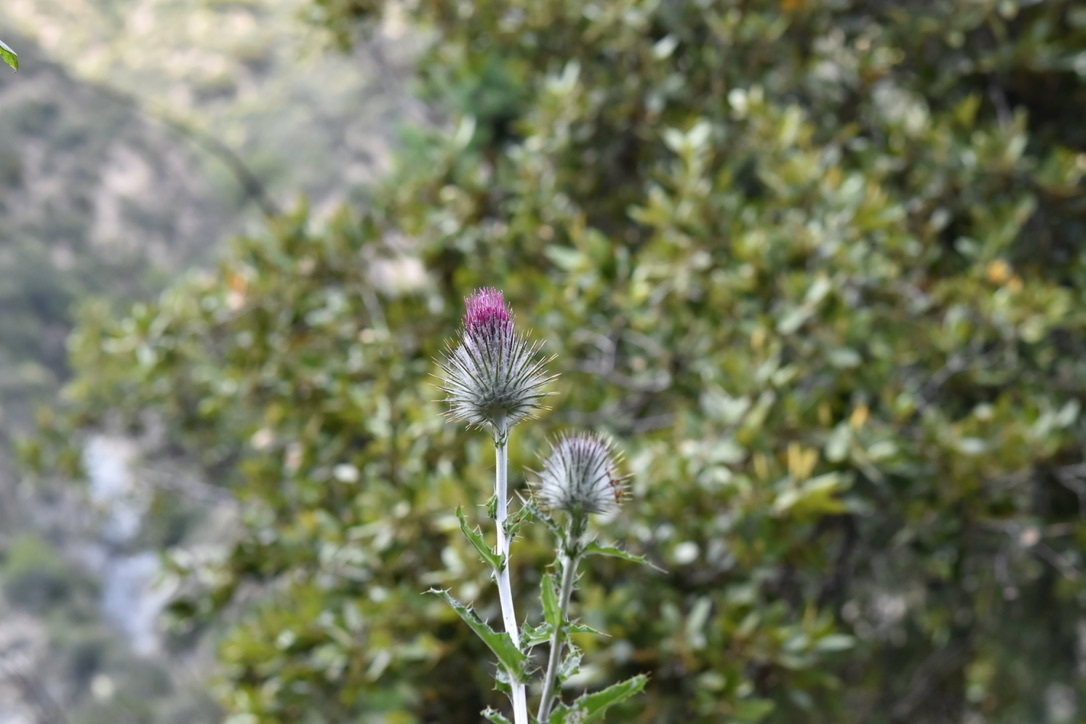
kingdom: Plantae
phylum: Tracheophyta
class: Magnoliopsida
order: Asterales
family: Asteraceae
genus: Cirsium
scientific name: Cirsium occidentale
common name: Western thistle
